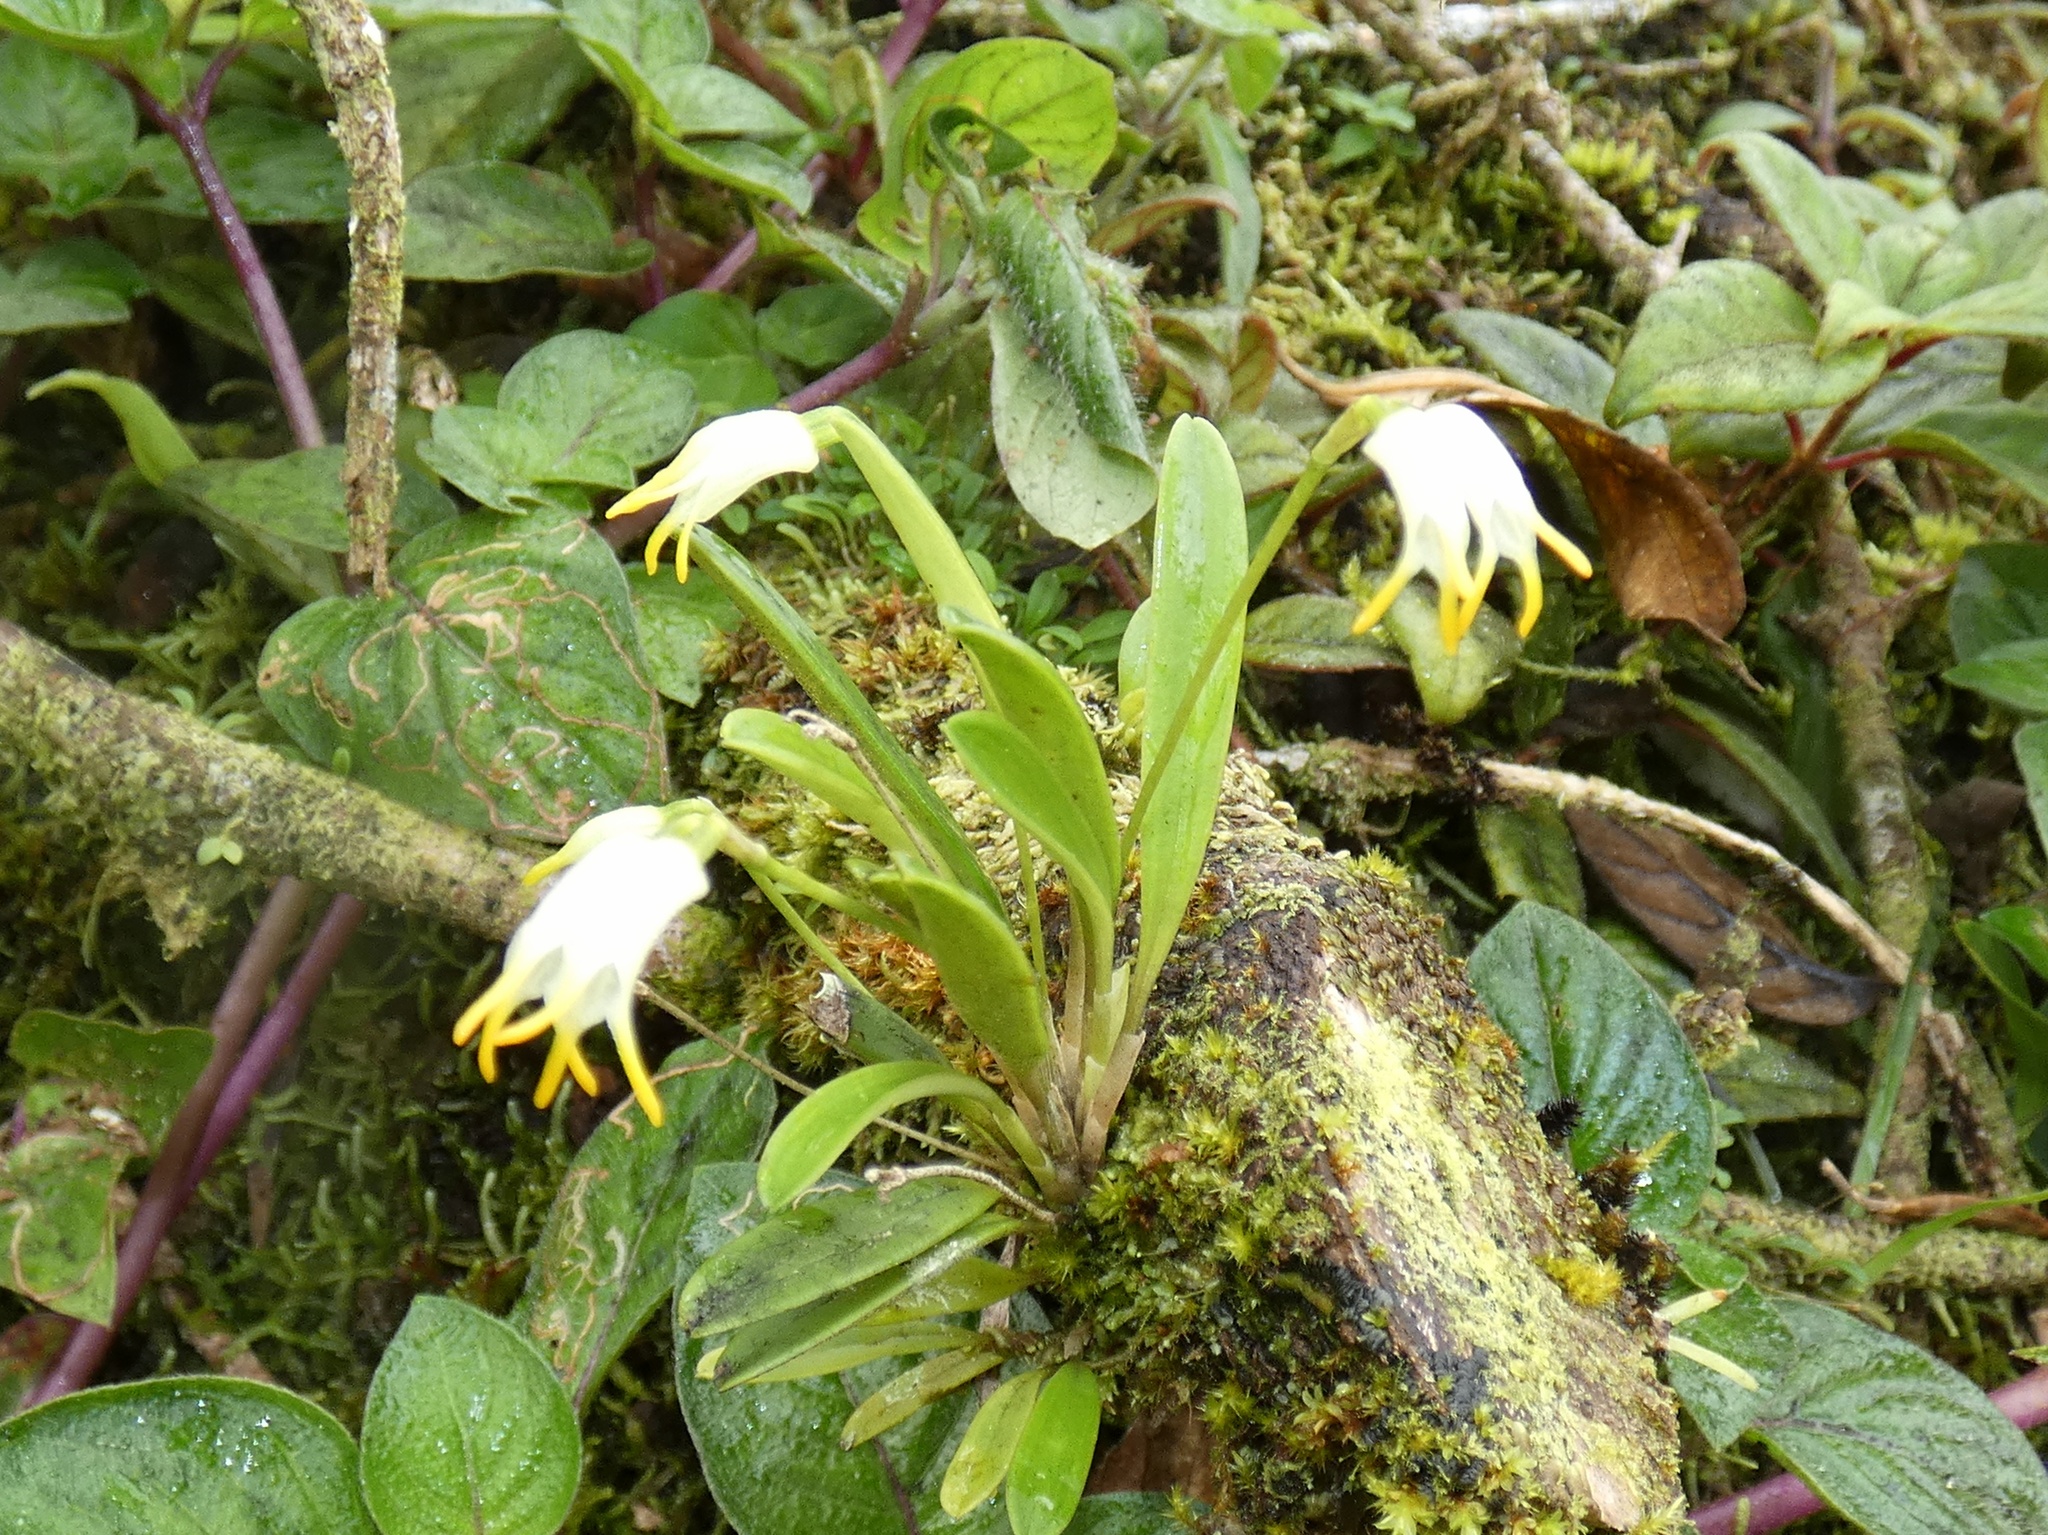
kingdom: Plantae
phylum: Tracheophyta
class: Liliopsida
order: Asparagales
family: Orchidaceae
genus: Masdevallia
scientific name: Masdevallia chontalensis
